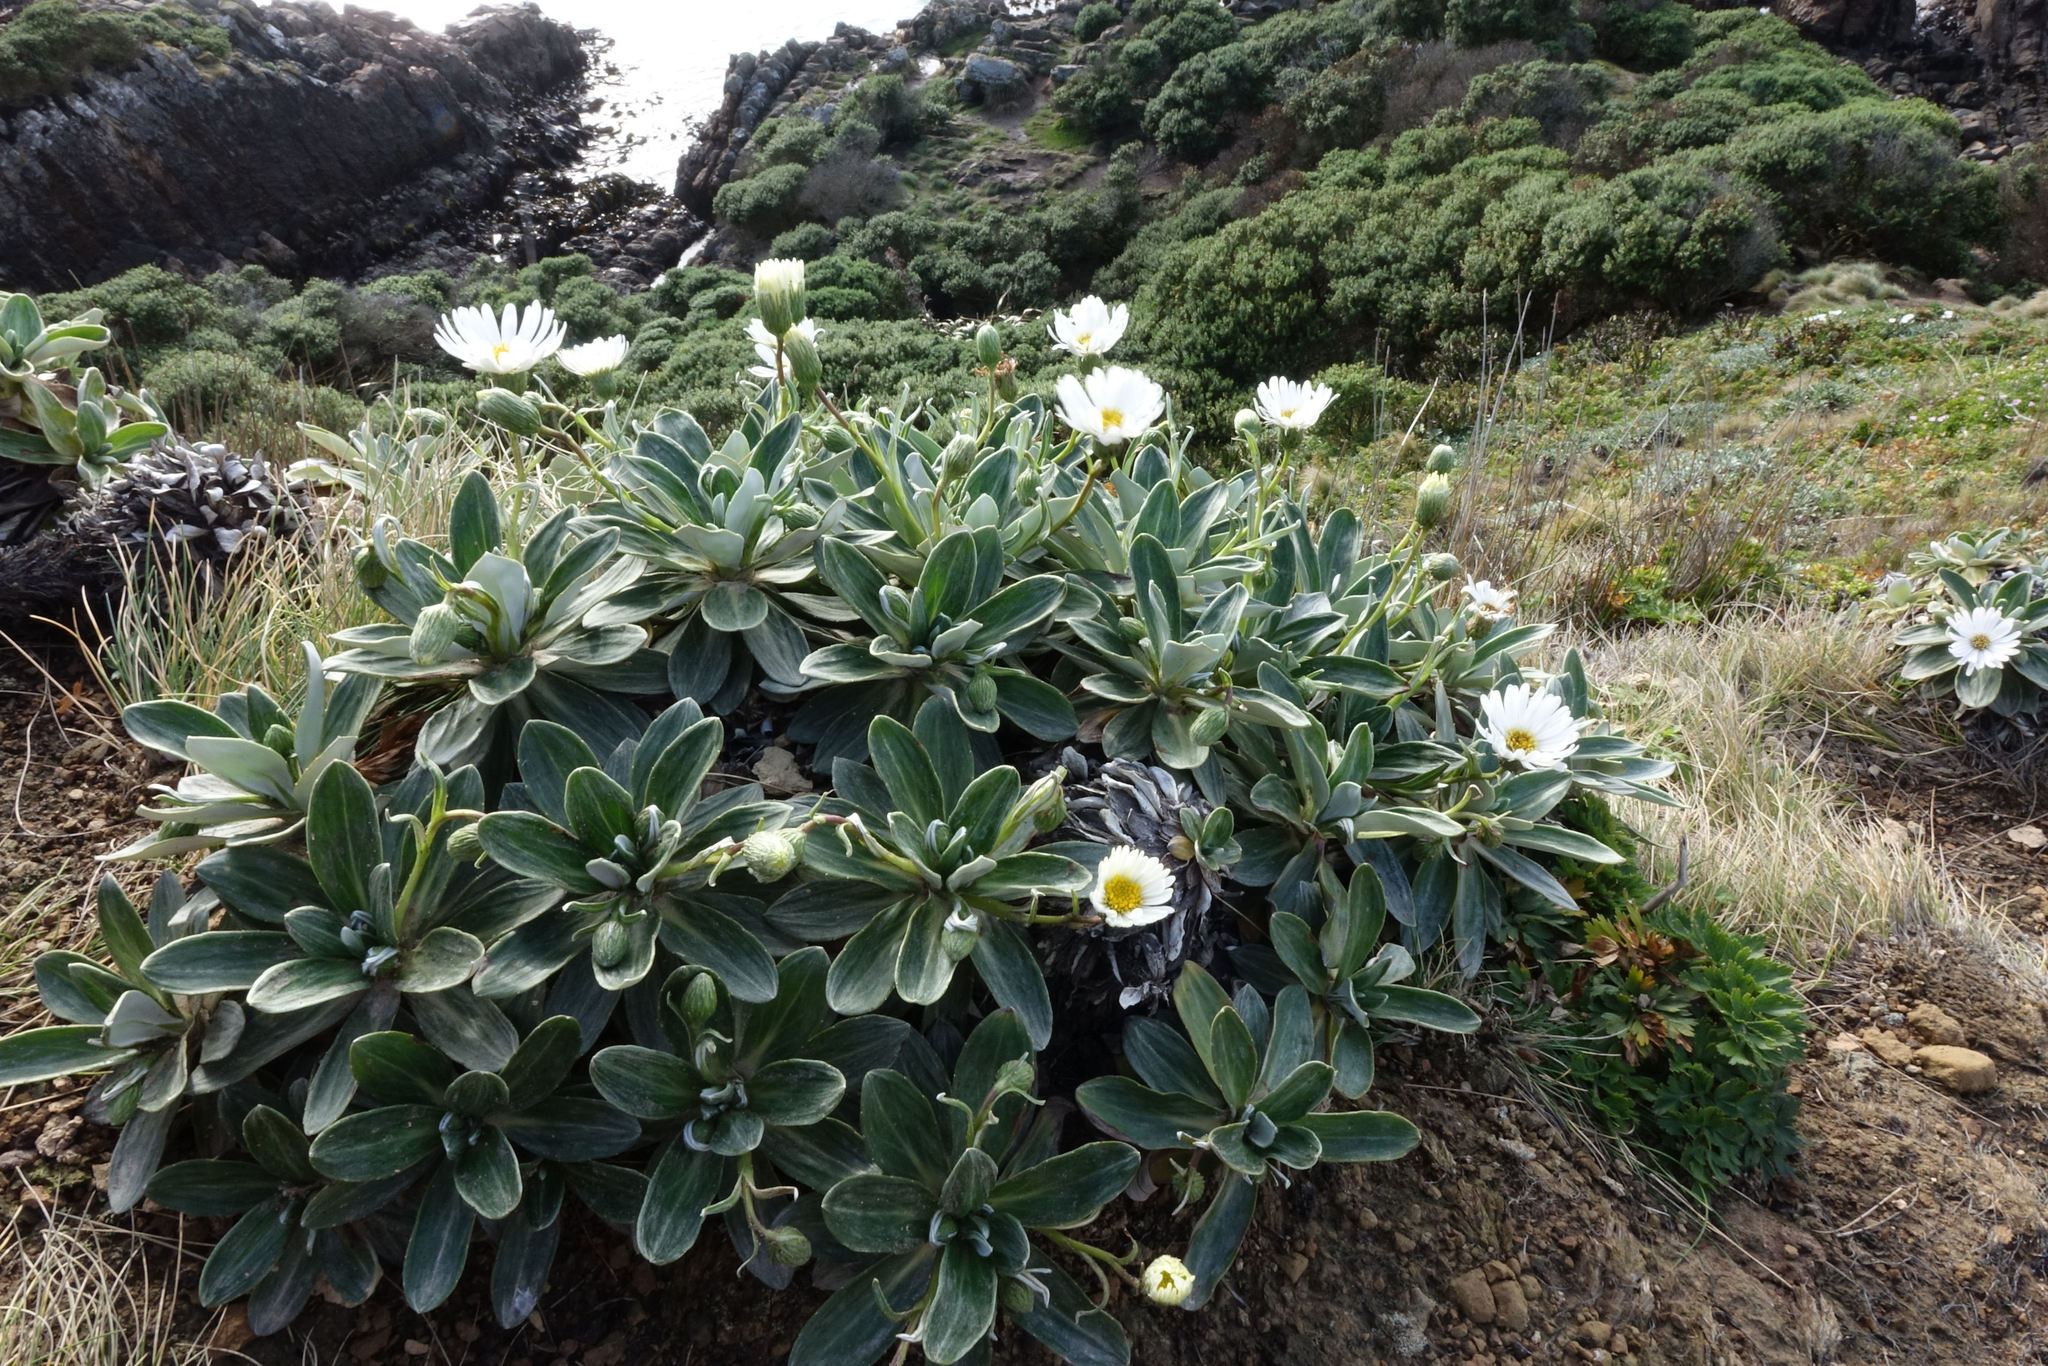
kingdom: Plantae
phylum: Tracheophyta
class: Magnoliopsida
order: Asterales
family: Asteraceae
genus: Celmisia
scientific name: Celmisia lindsayi
